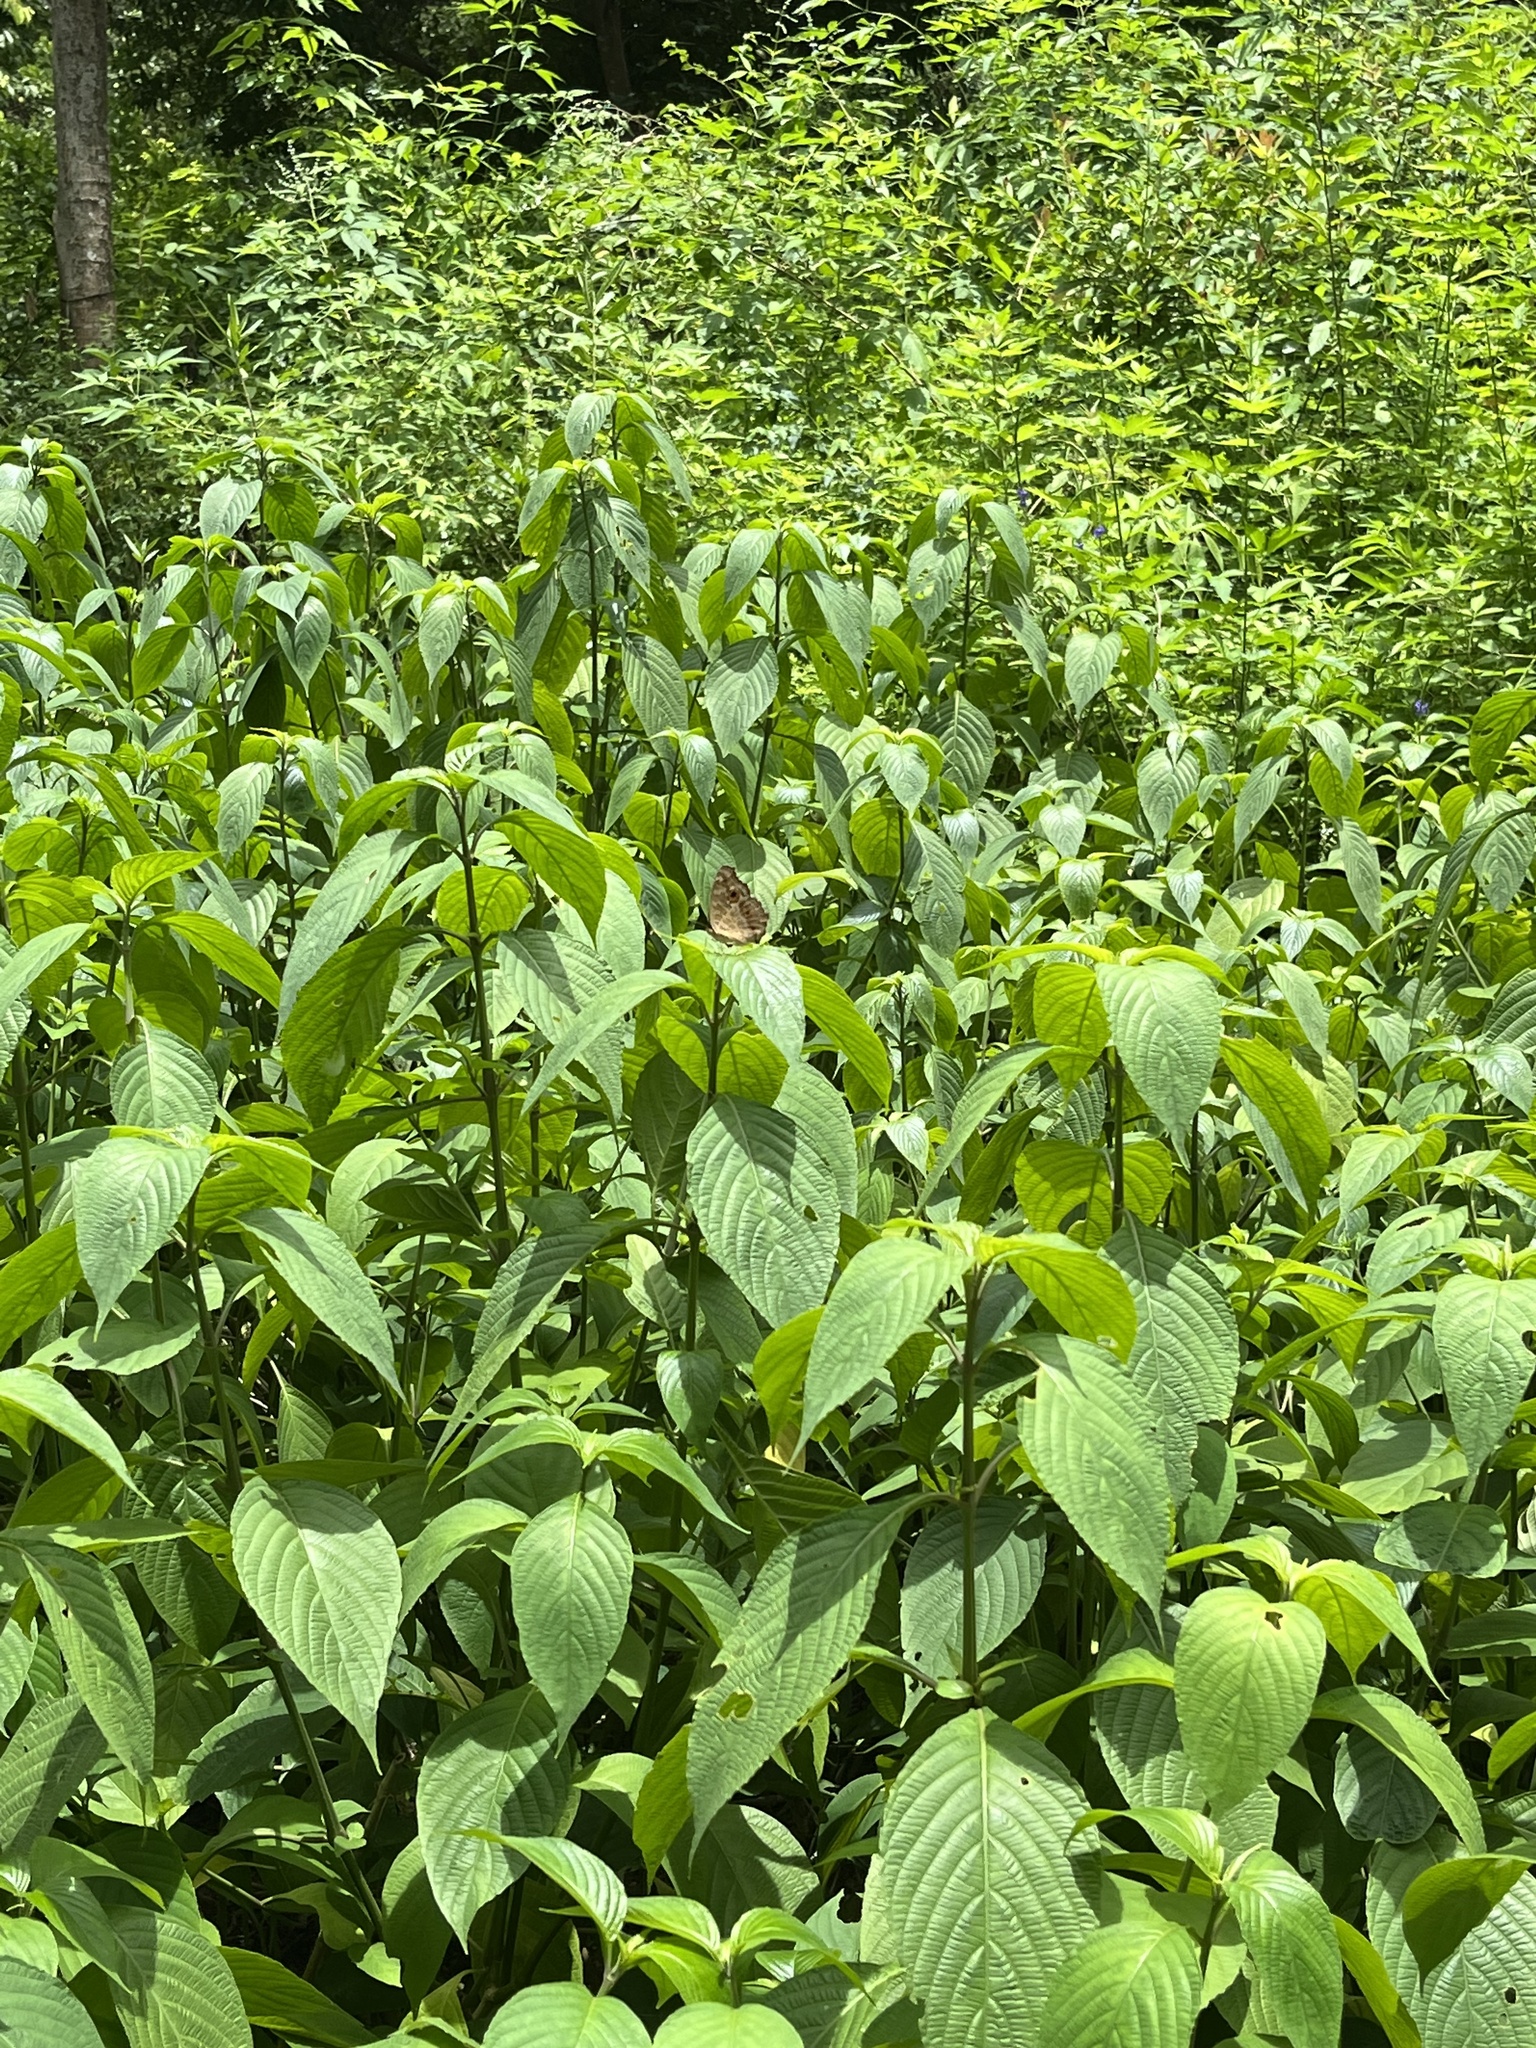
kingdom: Animalia
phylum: Arthropoda
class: Insecta
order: Lepidoptera
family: Nymphalidae
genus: Junonia
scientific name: Junonia lemonias
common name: Lemon pansy
